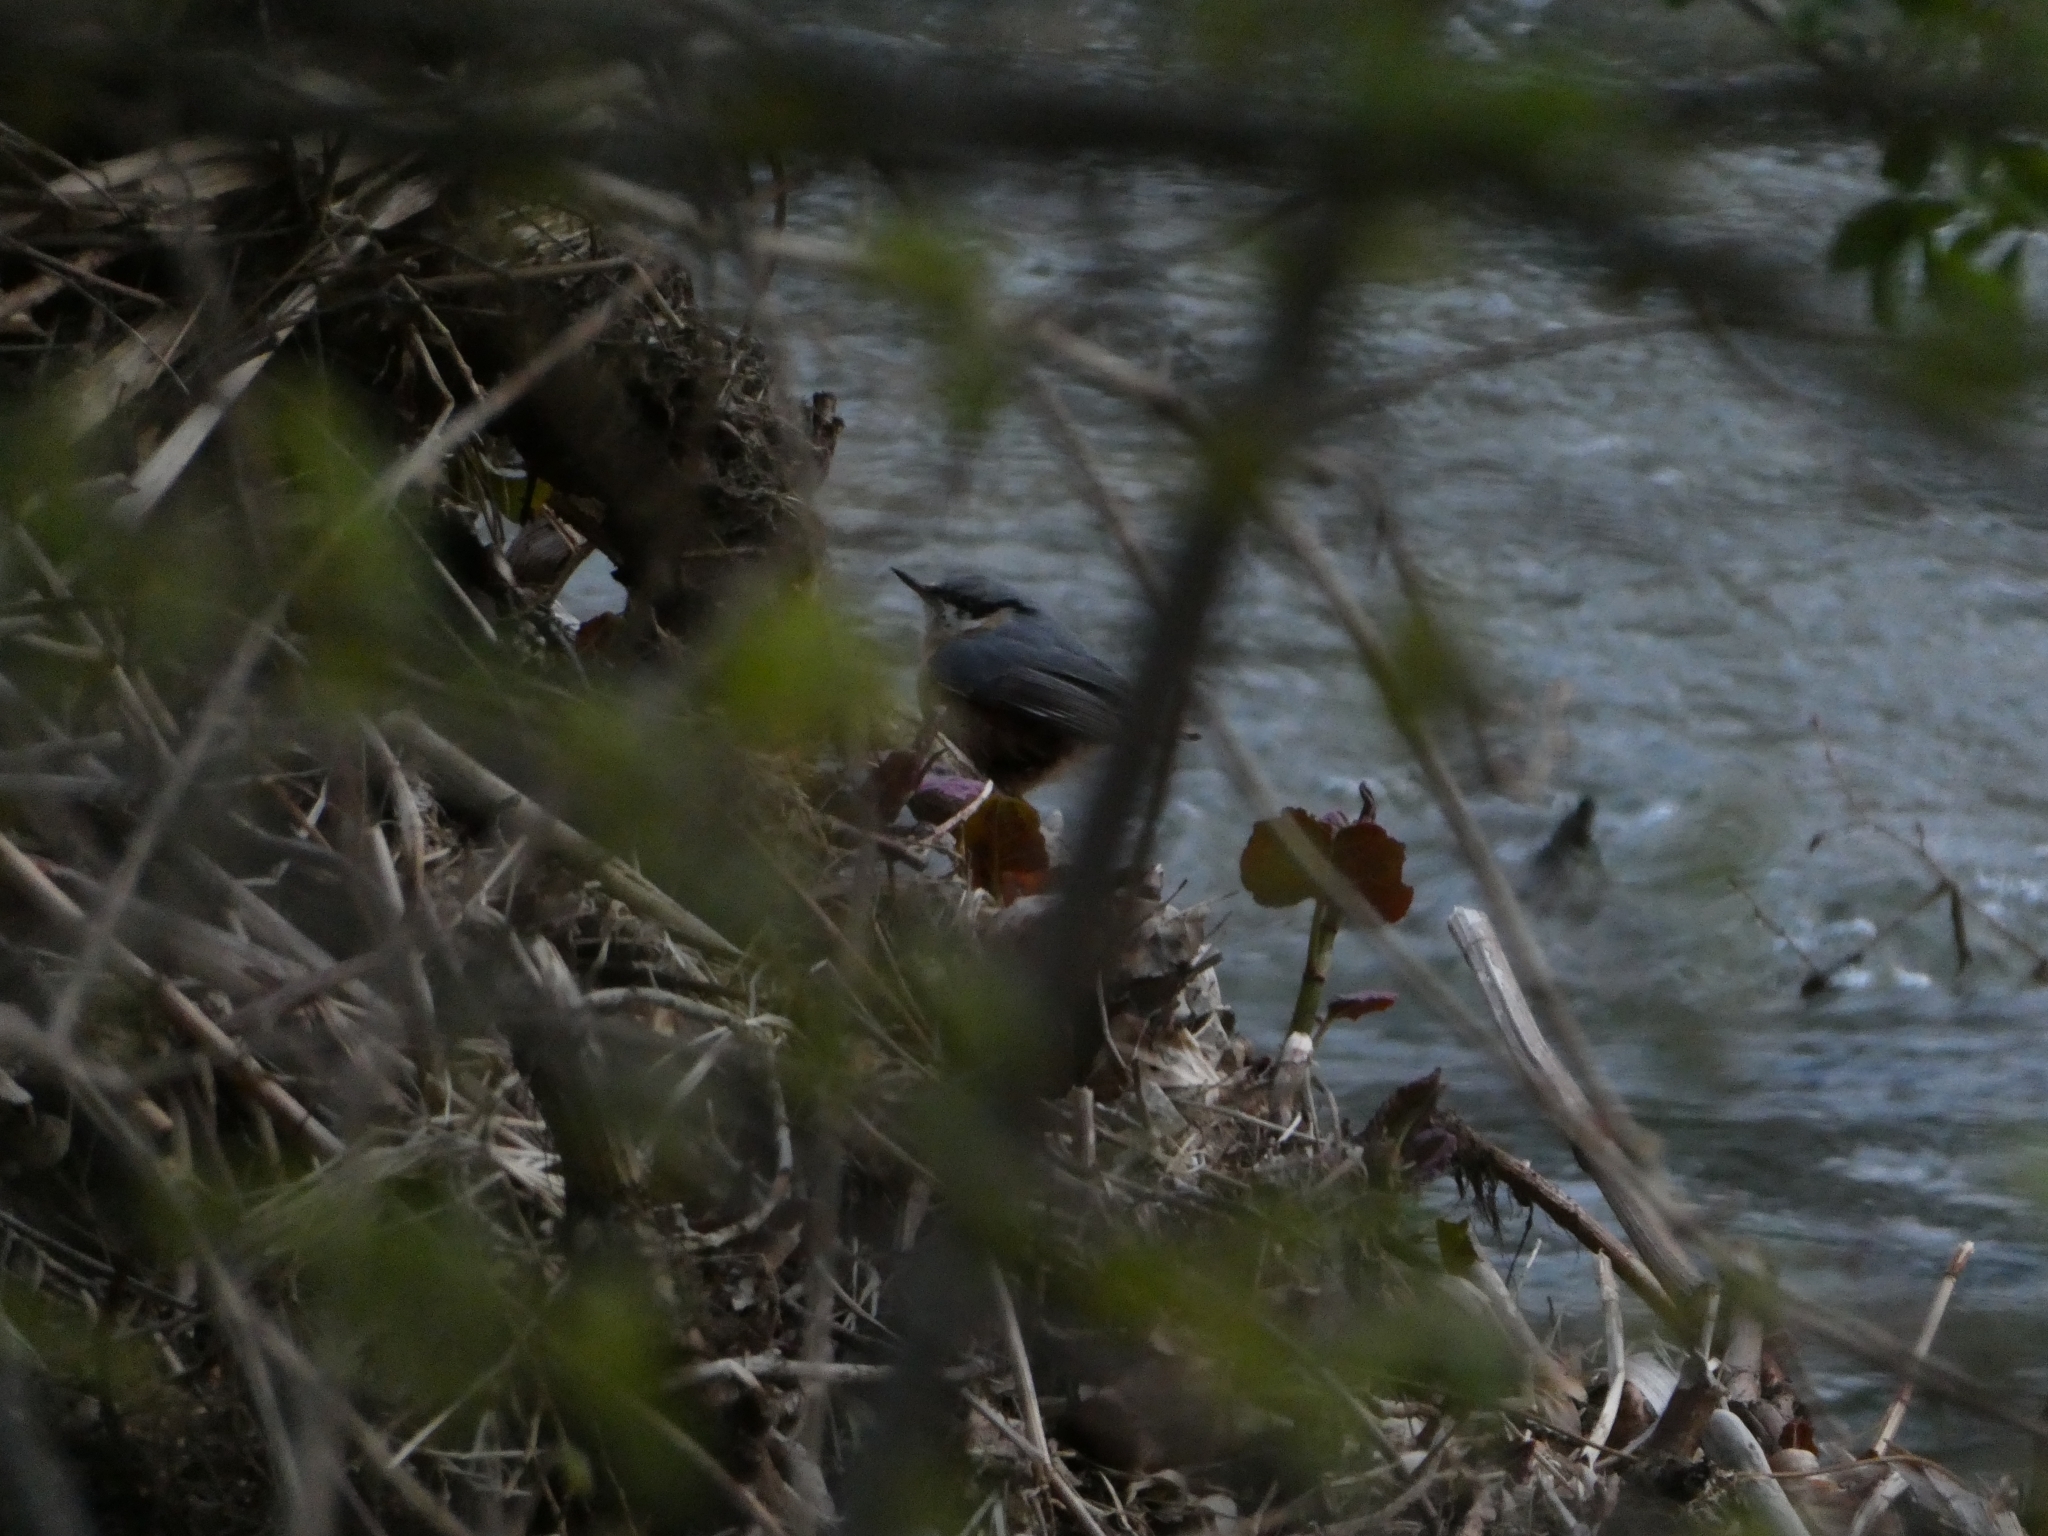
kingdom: Animalia
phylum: Chordata
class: Aves
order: Passeriformes
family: Sittidae
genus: Sitta
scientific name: Sitta europaea
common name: Eurasian nuthatch
